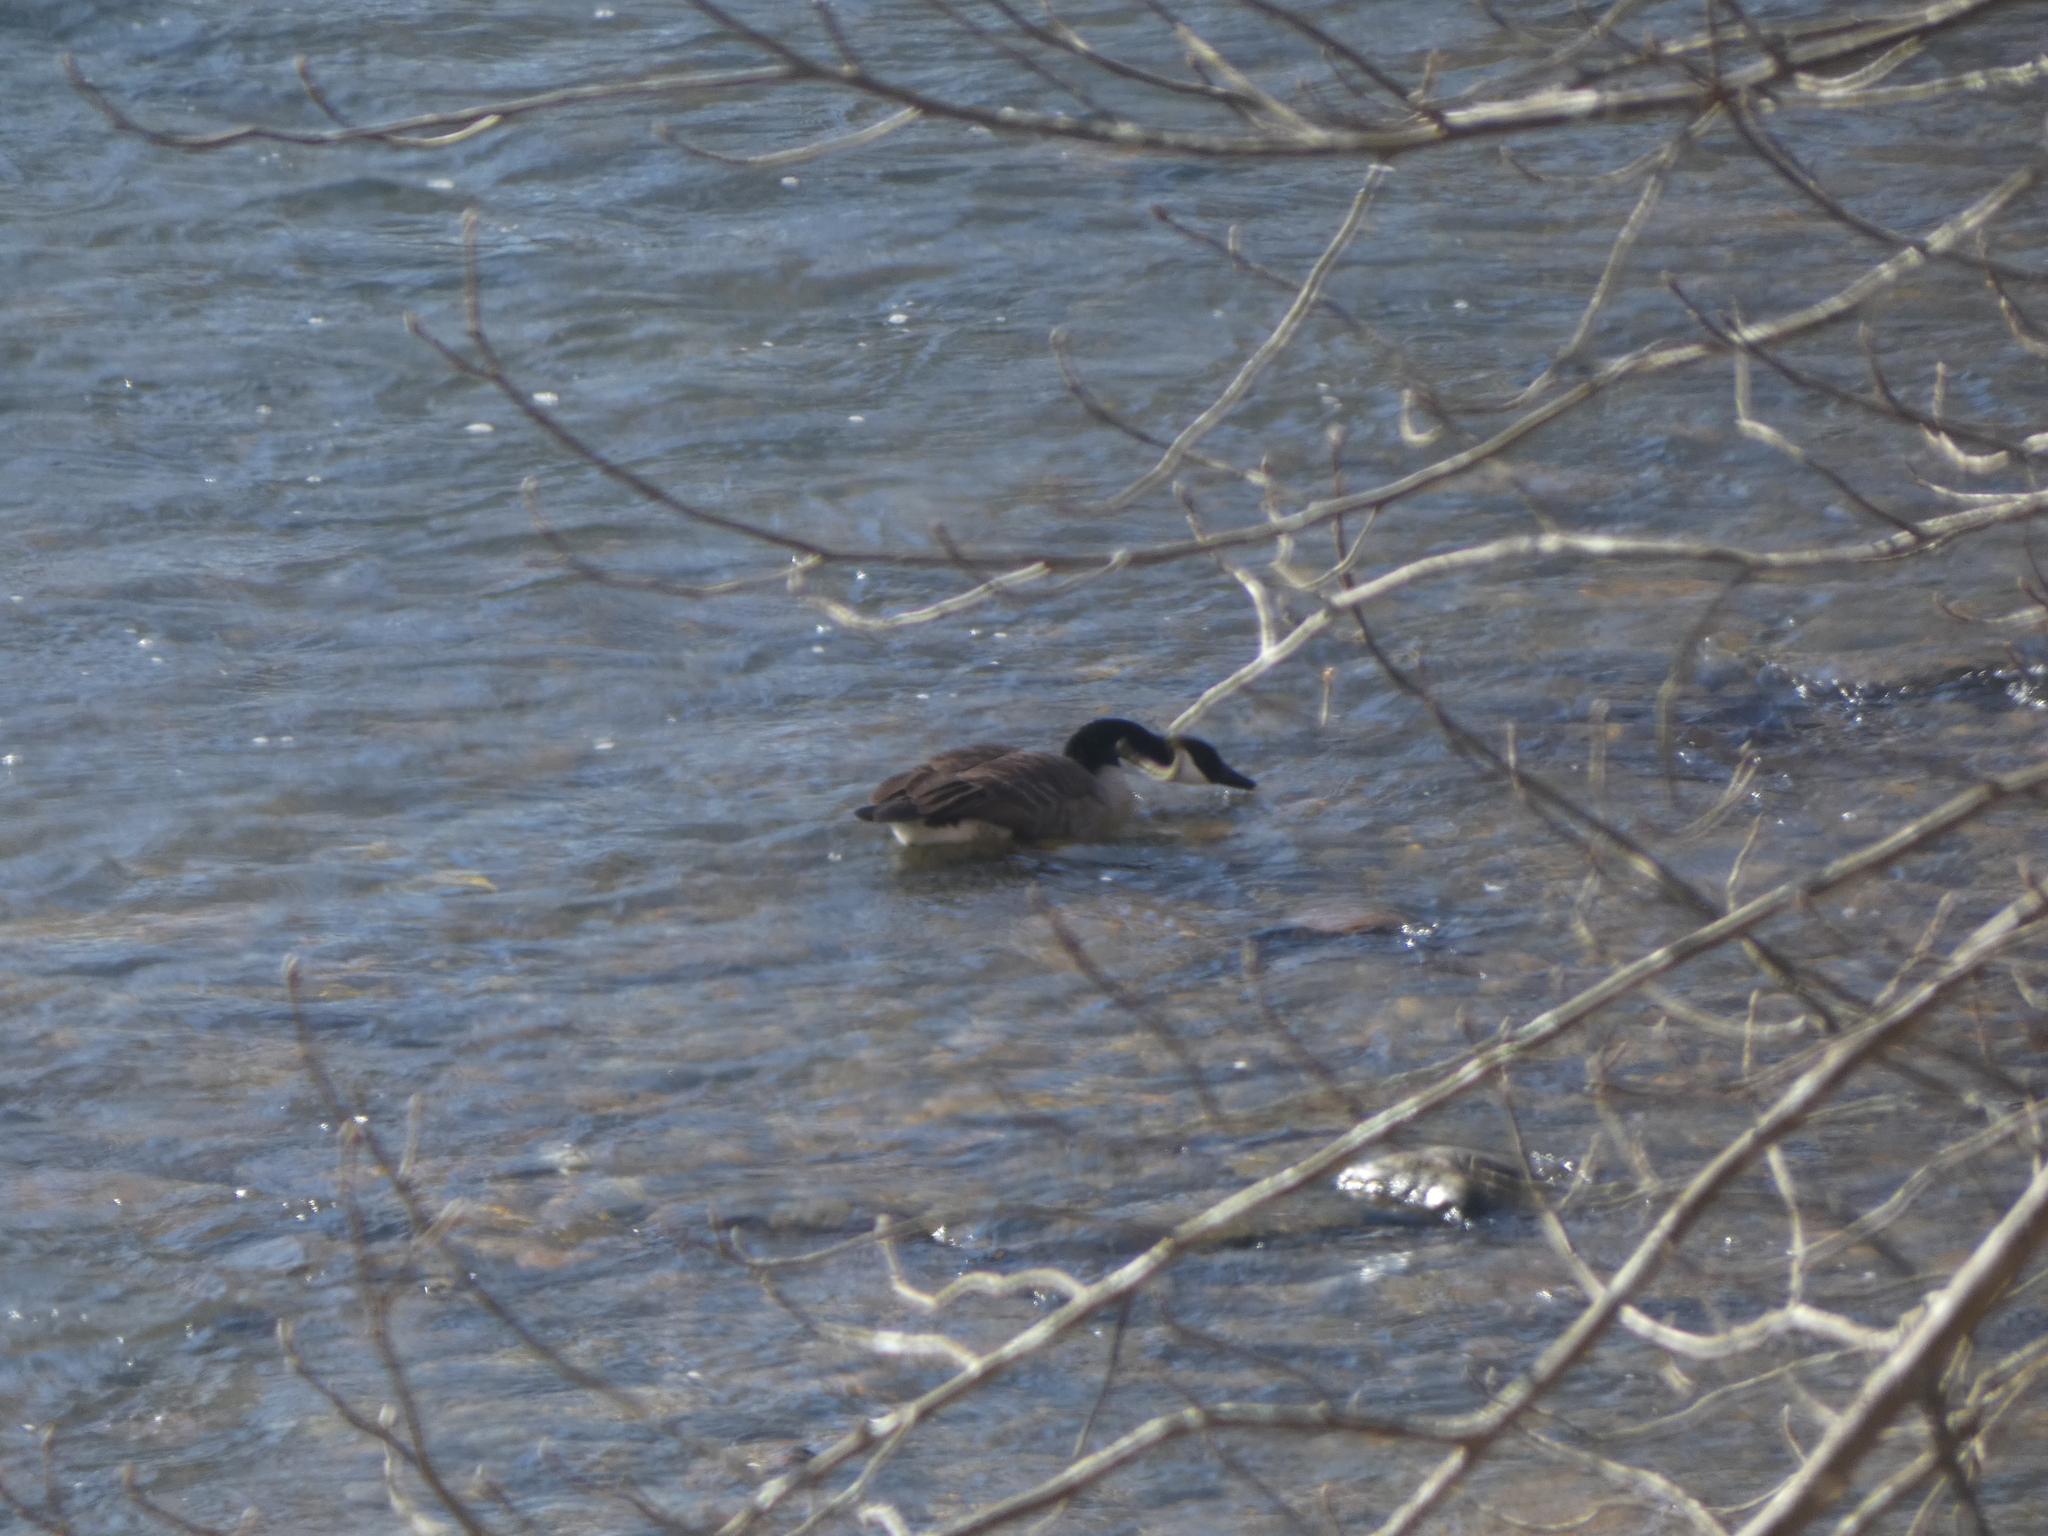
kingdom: Animalia
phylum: Chordata
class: Aves
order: Anseriformes
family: Anatidae
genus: Branta
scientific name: Branta canadensis
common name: Canada goose
